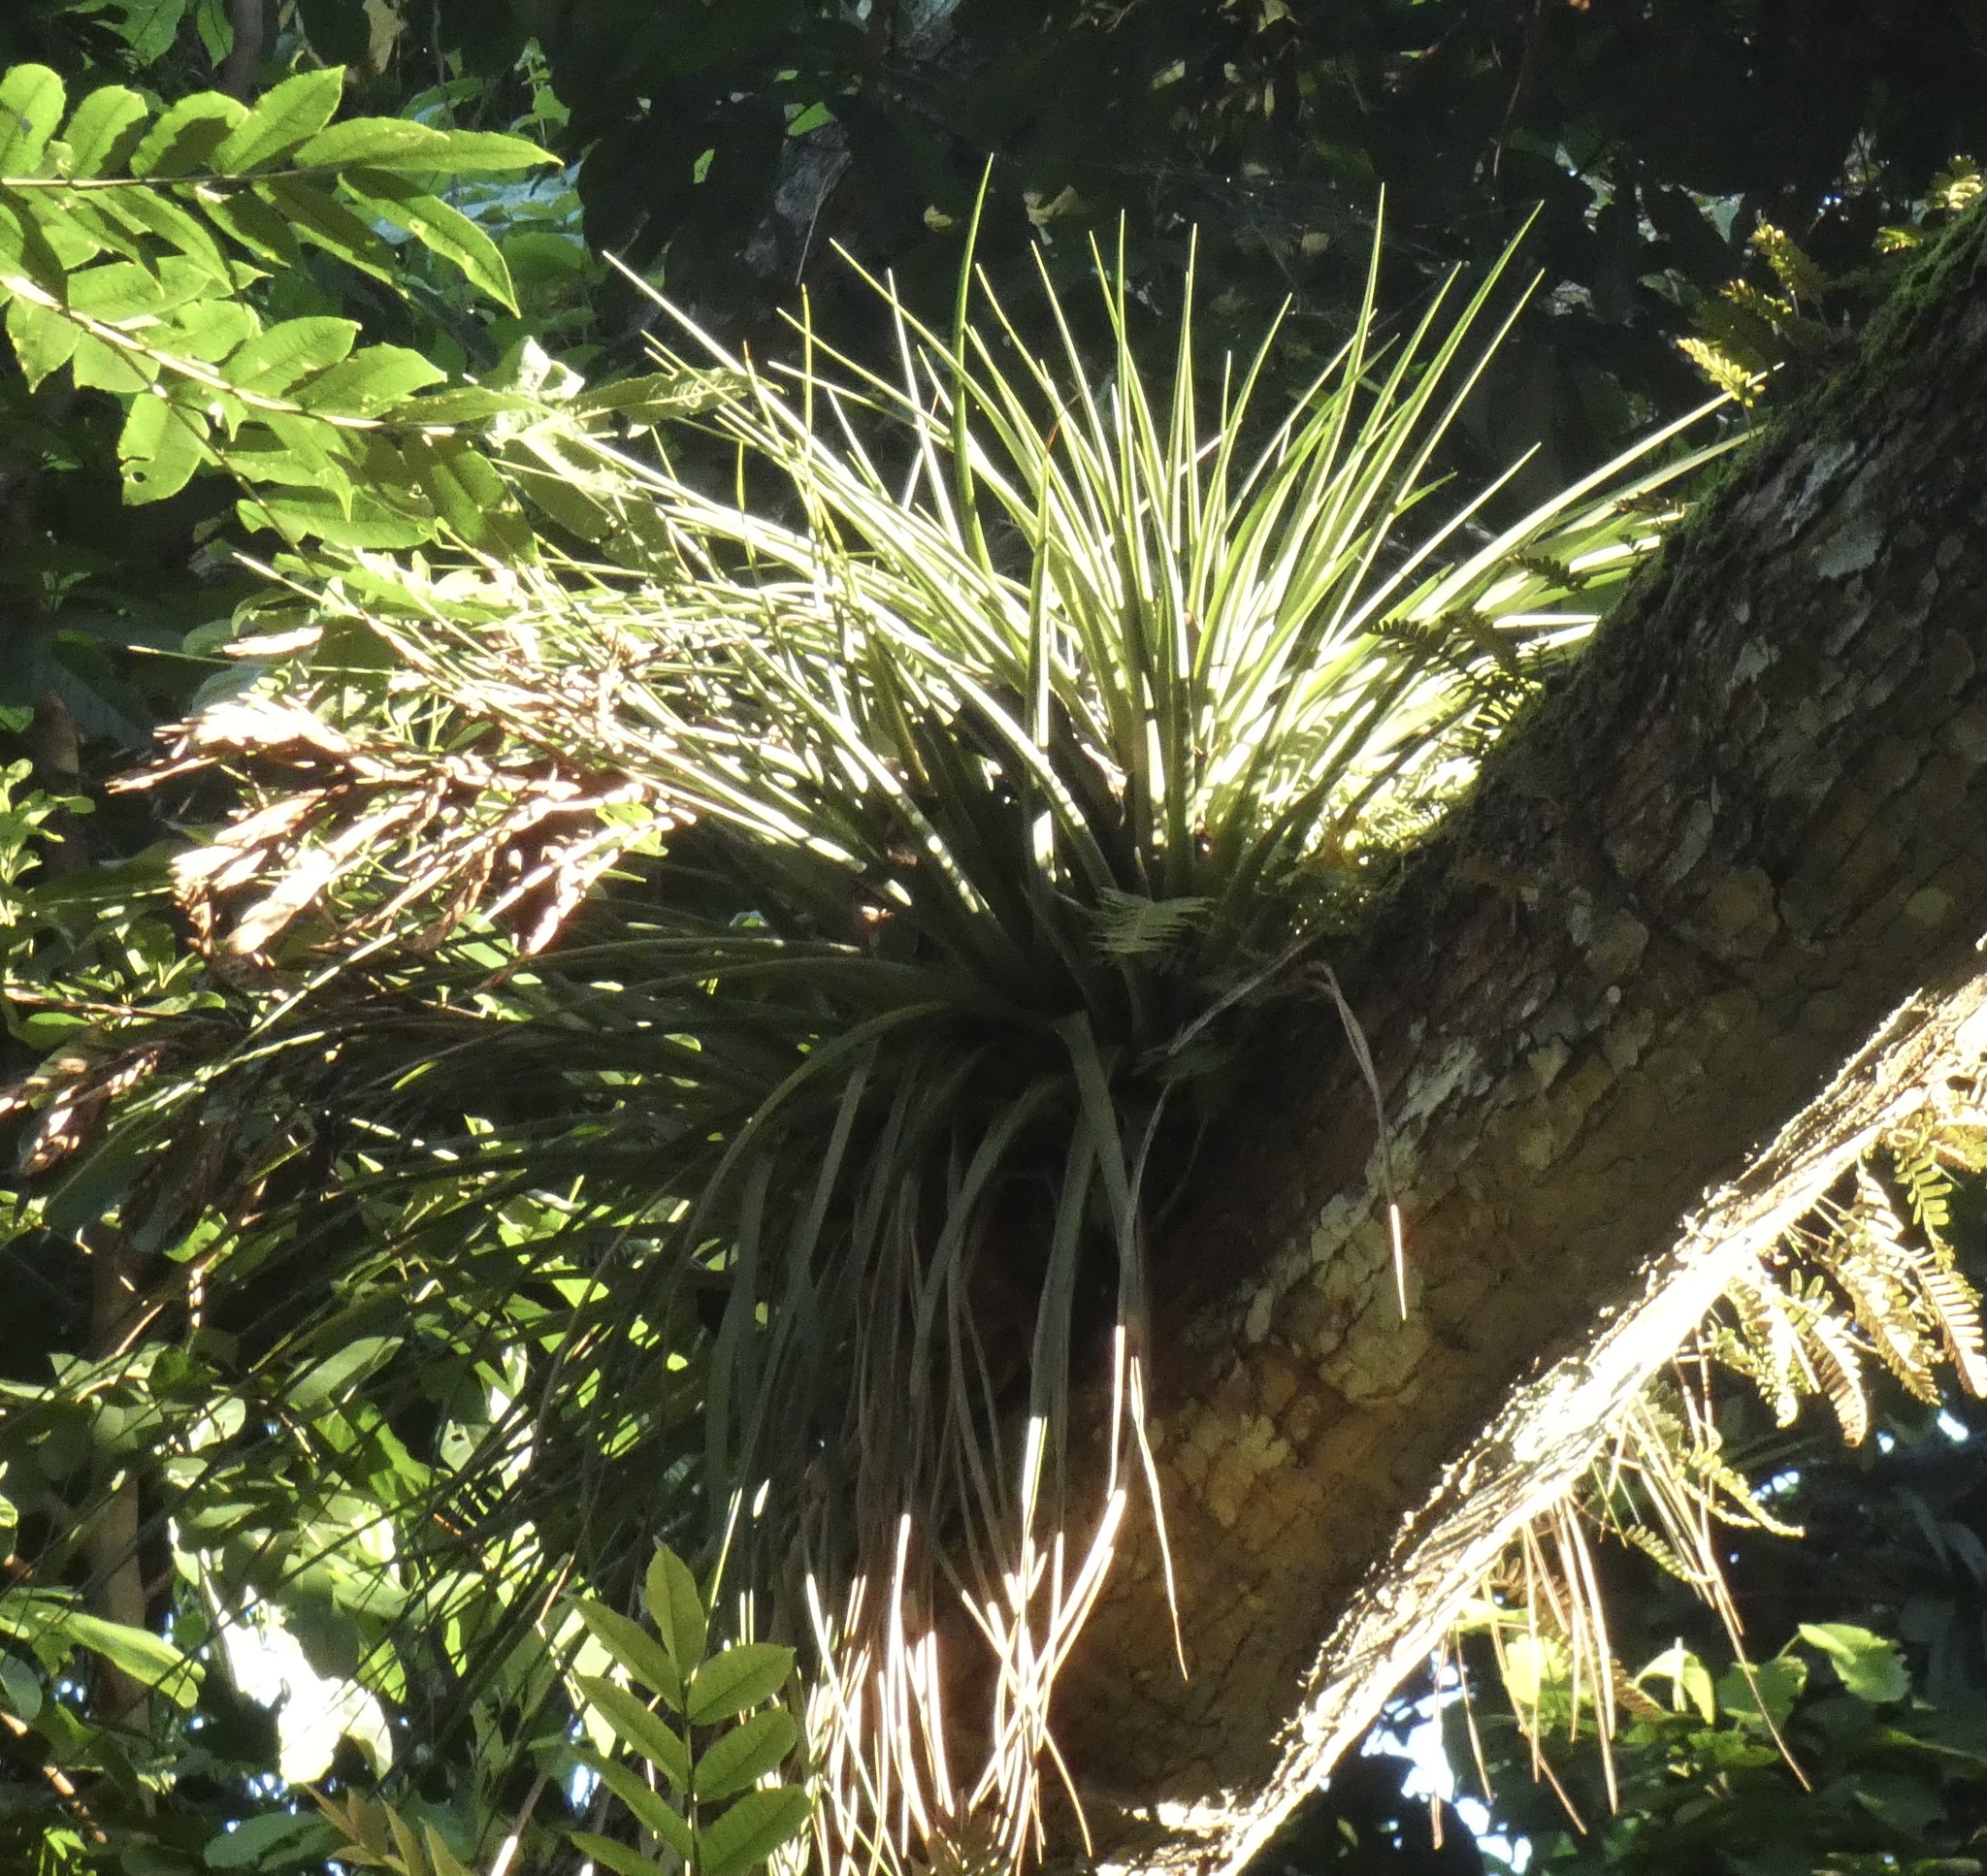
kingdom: Plantae
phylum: Tracheophyta
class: Liliopsida
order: Poales
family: Bromeliaceae
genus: Tillandsia
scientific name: Tillandsia fasciculata
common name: Giant airplant
